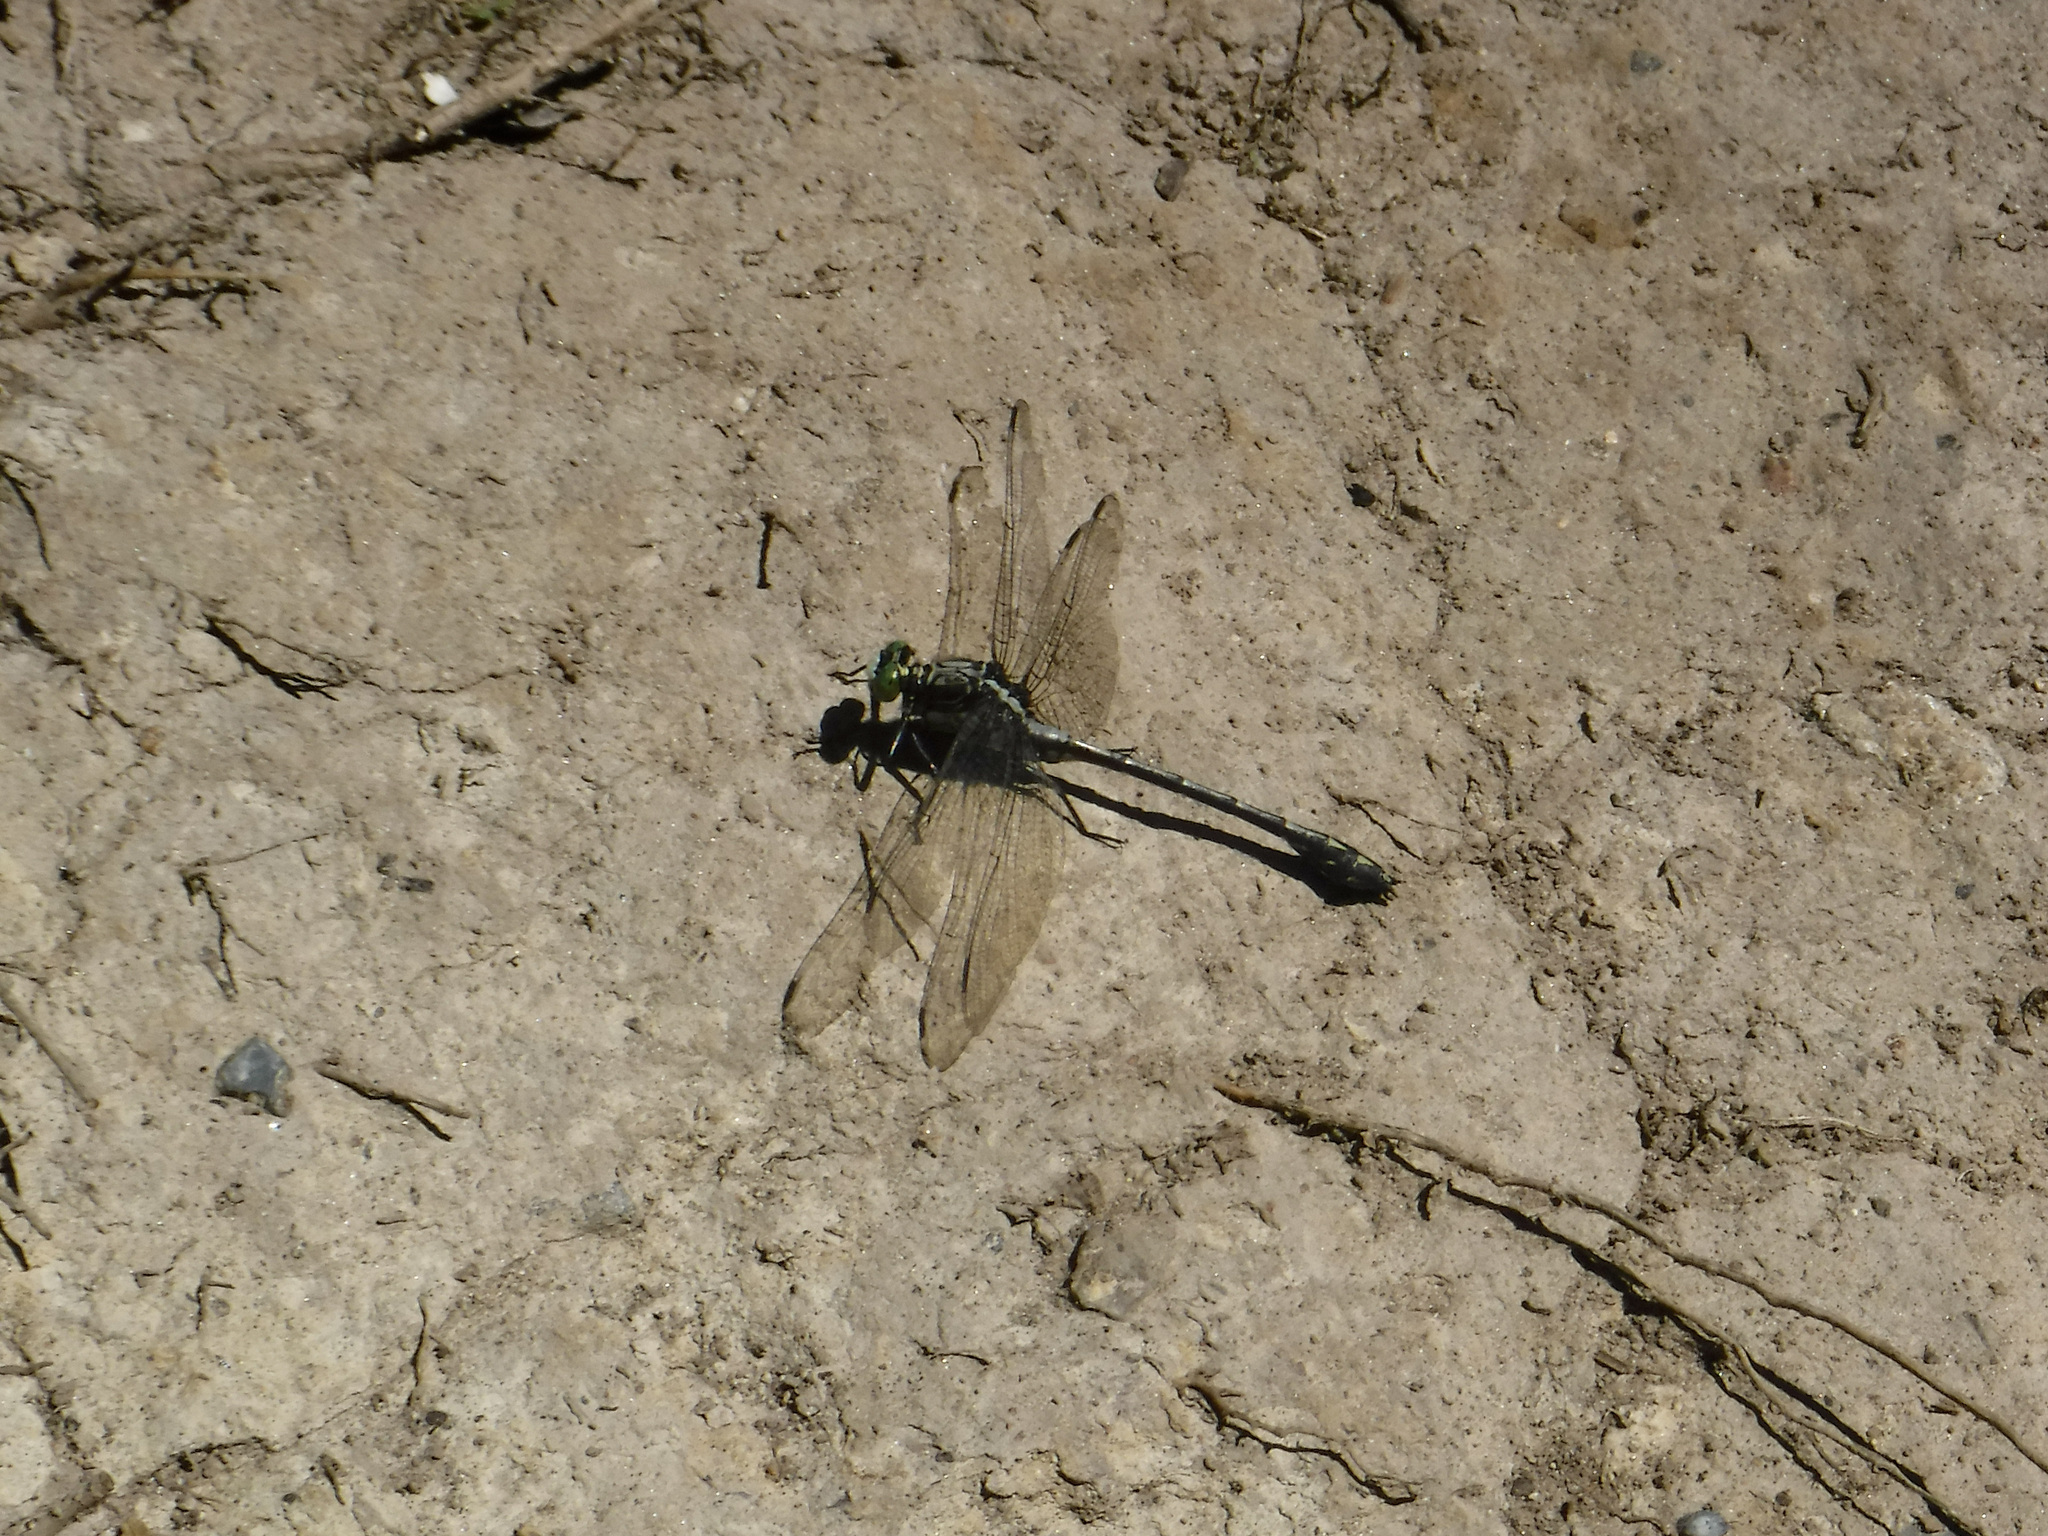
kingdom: Animalia
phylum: Arthropoda
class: Insecta
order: Odonata
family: Gomphidae
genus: Dromogomphus
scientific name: Dromogomphus spinosus
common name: Black-shouldered spinyleg
